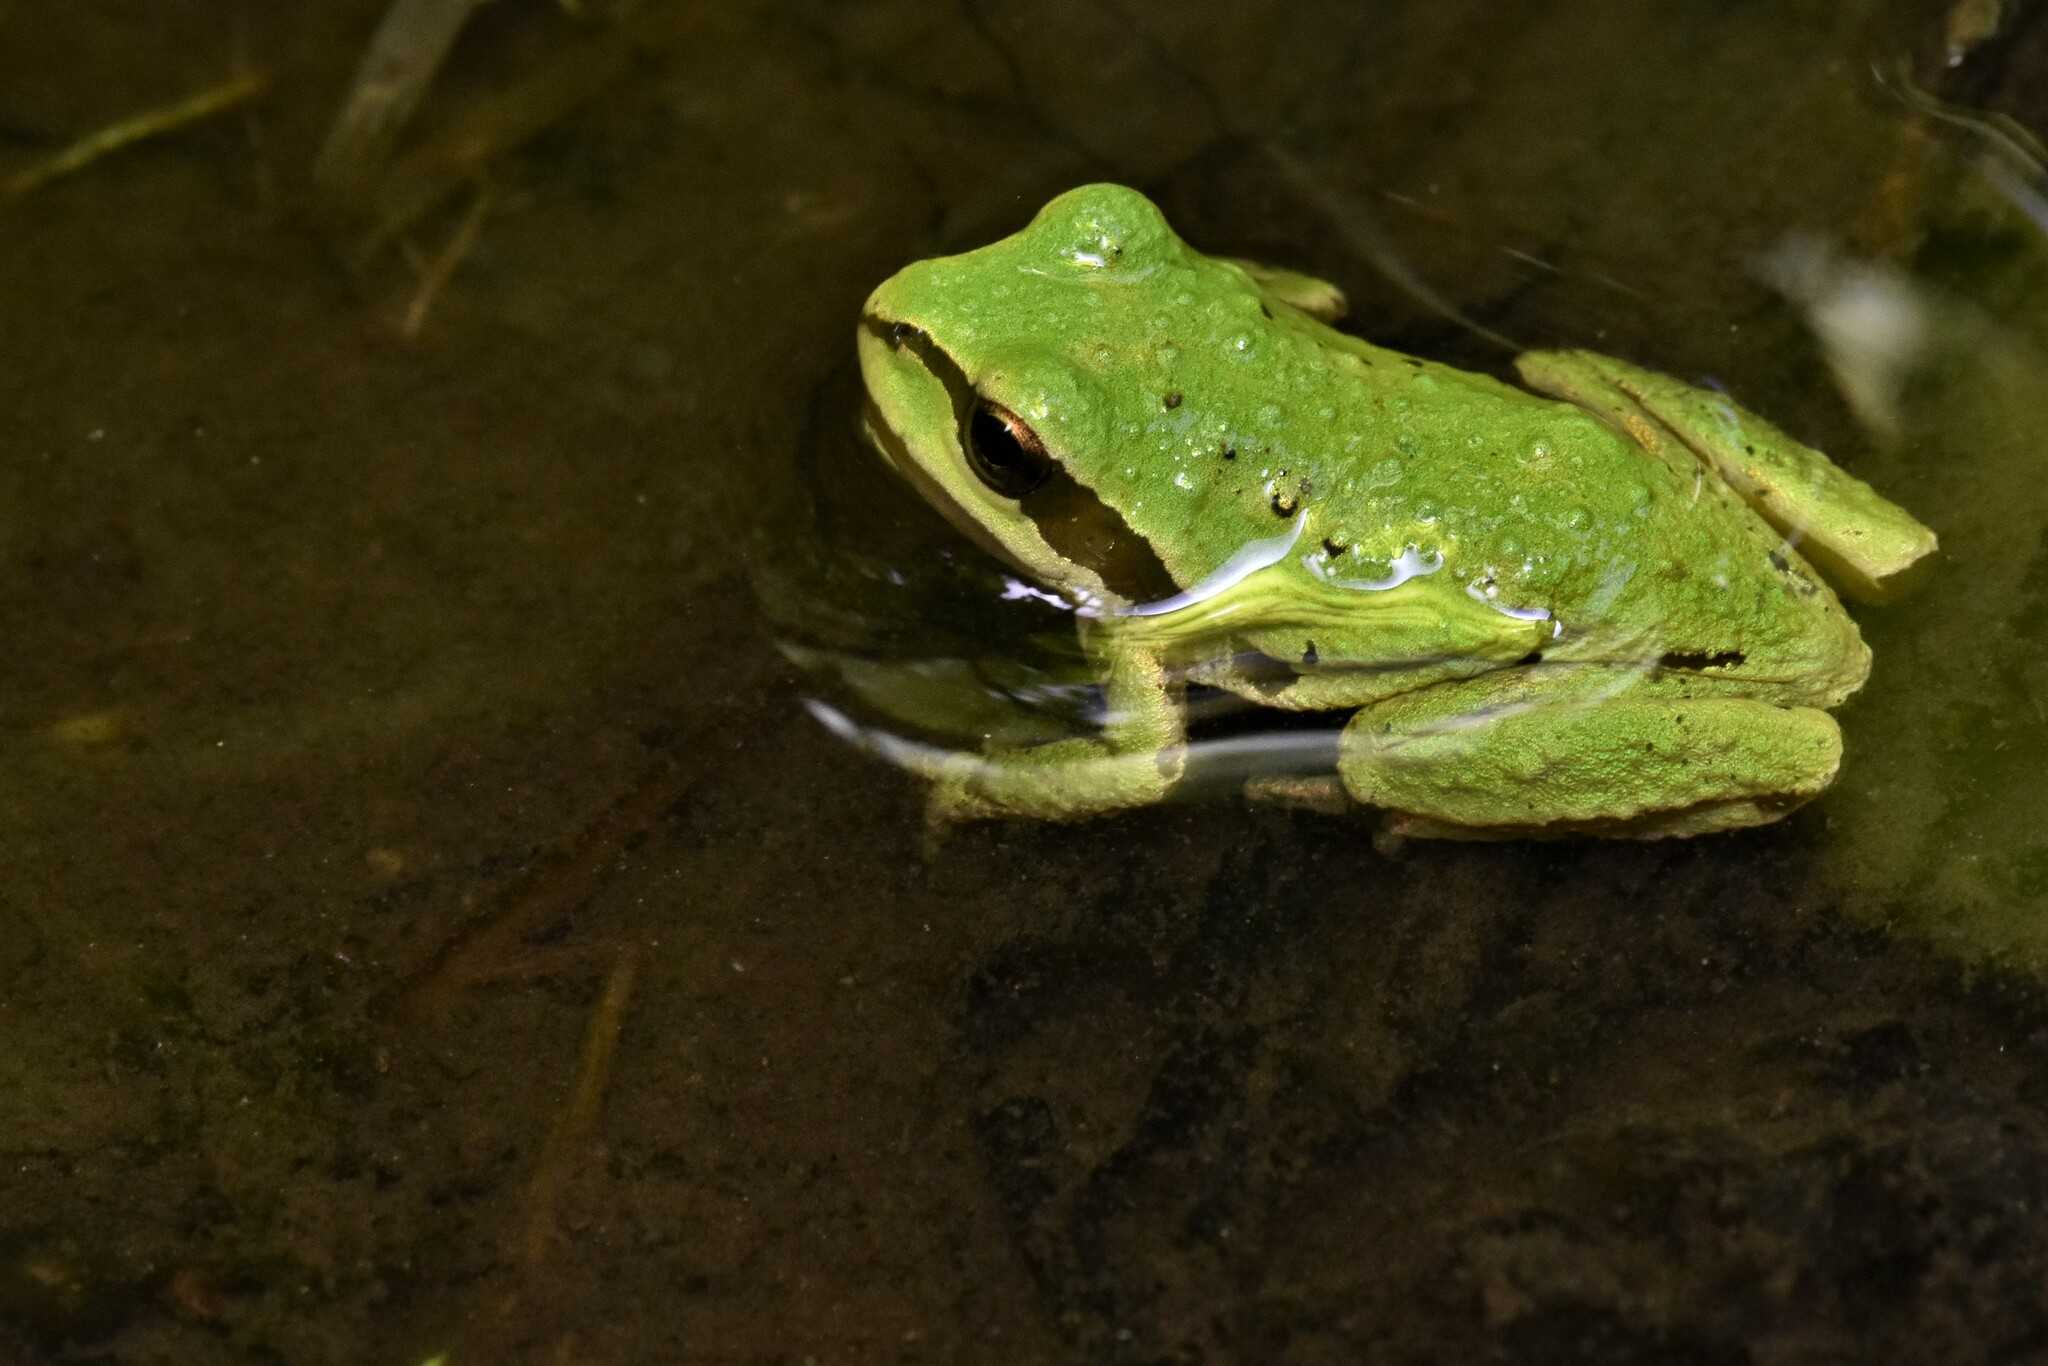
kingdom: Animalia
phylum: Chordata
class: Amphibia
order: Anura
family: Hylidae
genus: Pseudacris
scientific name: Pseudacris regilla
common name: Pacific chorus frog
